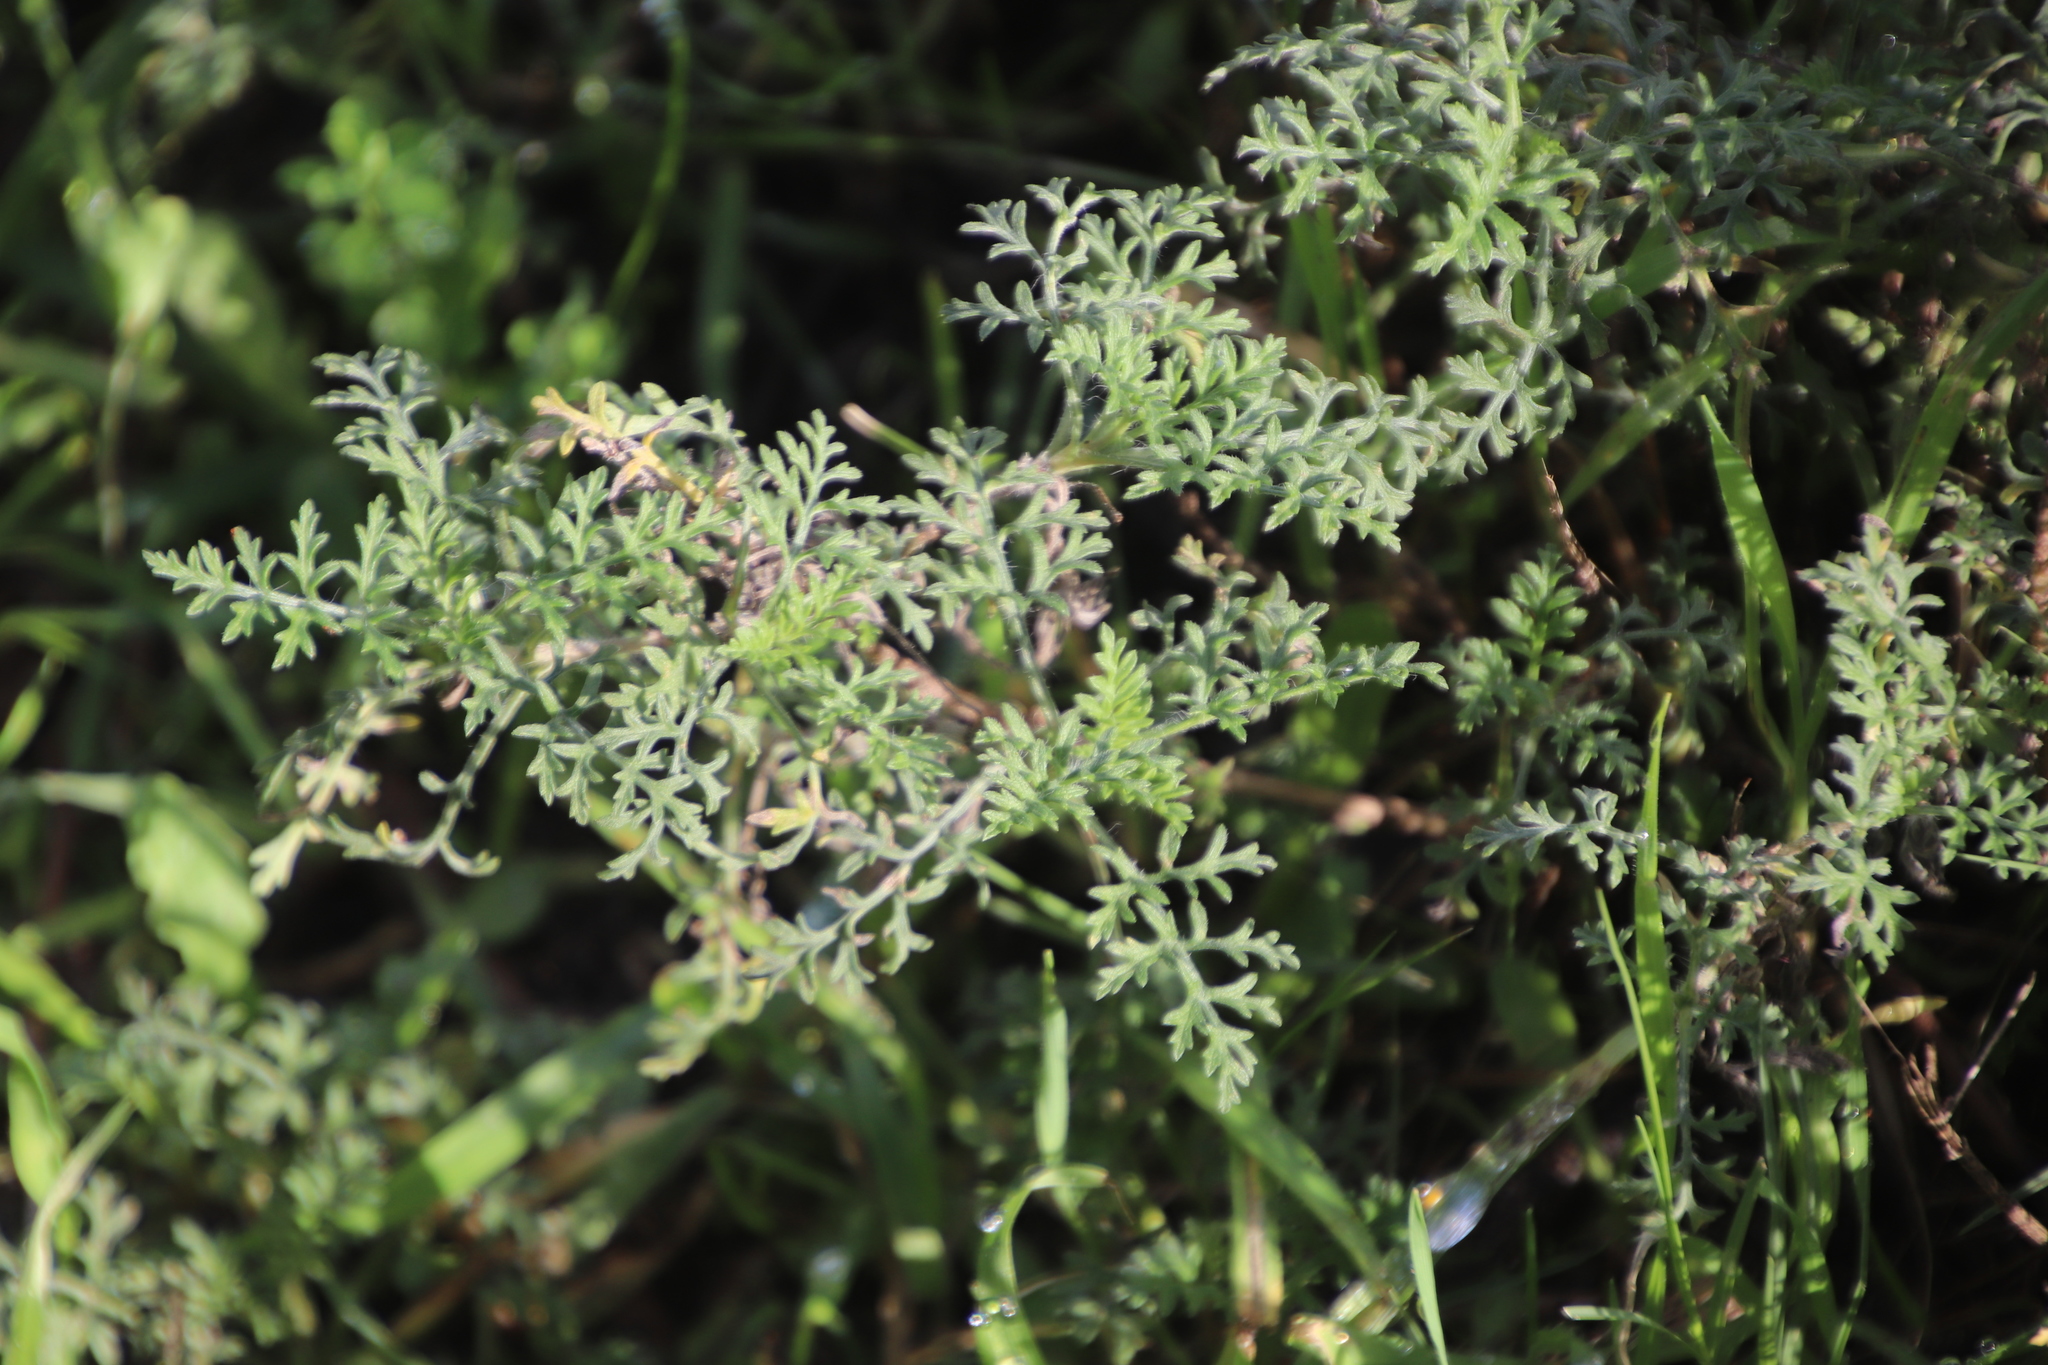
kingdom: Plantae
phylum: Tracheophyta
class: Magnoliopsida
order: Asterales
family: Asteraceae
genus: Ambrosia
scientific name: Ambrosia tenuifolia
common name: Lacy ambrosia
